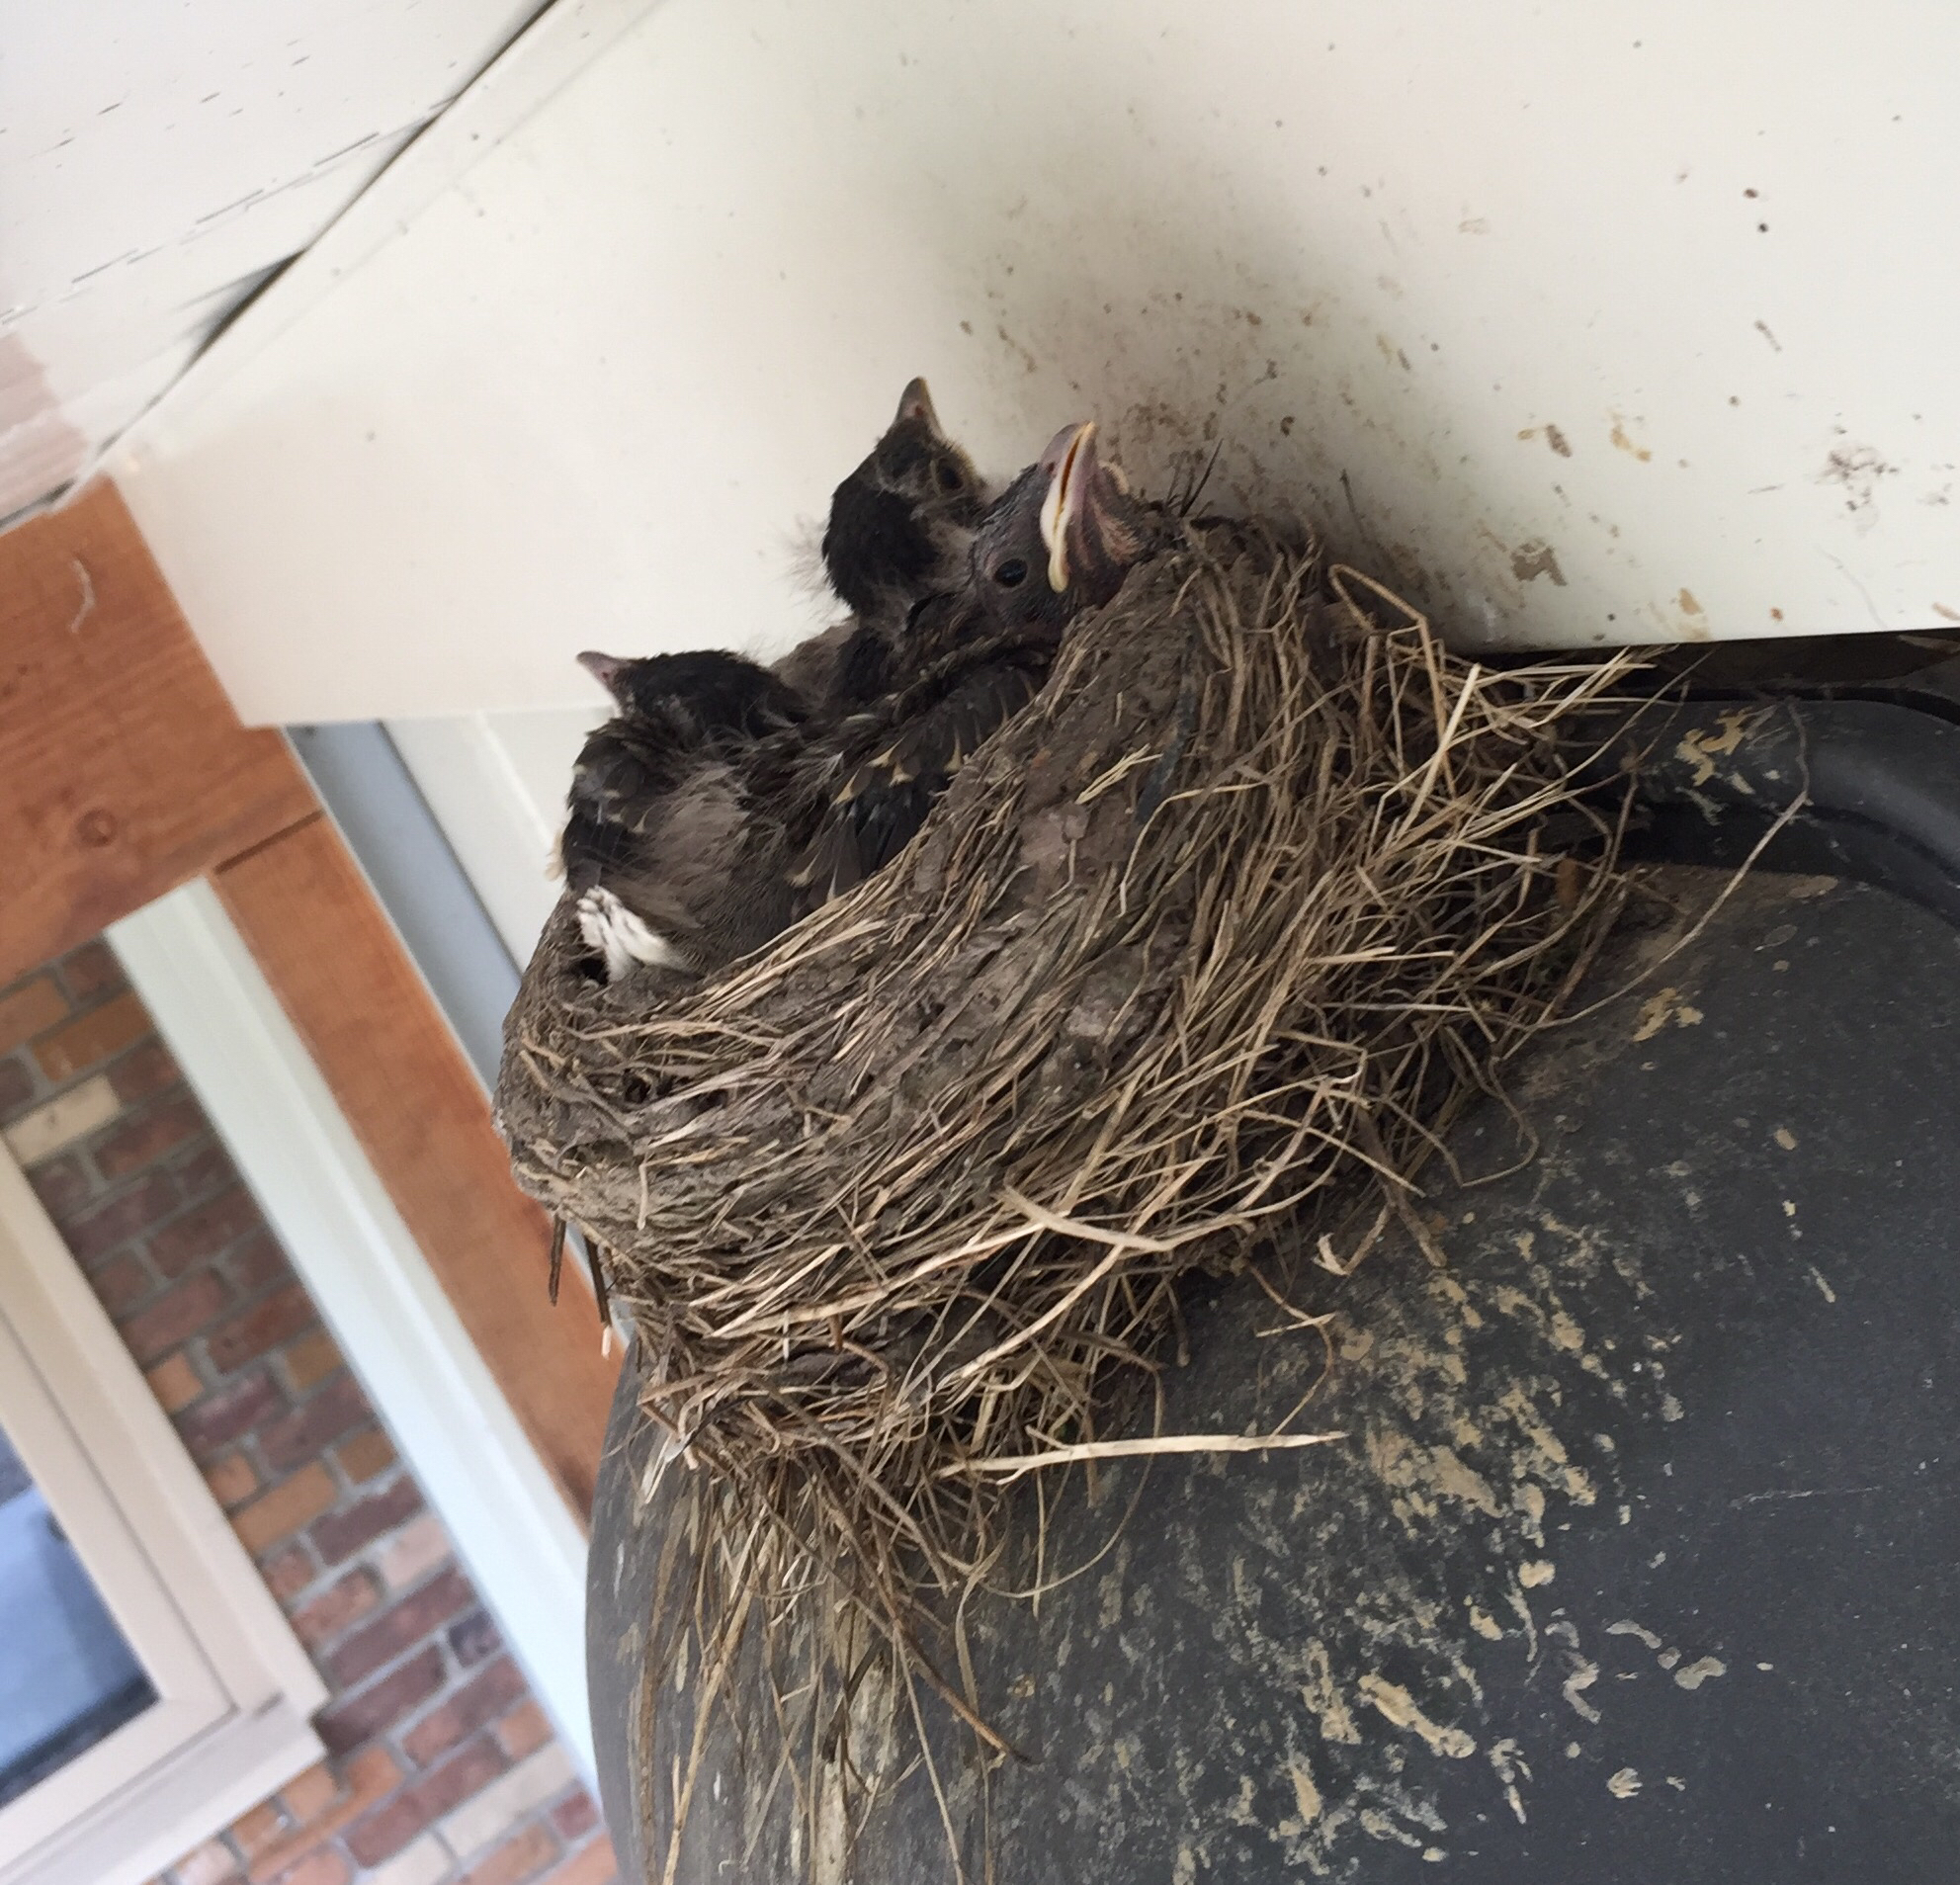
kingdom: Animalia
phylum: Chordata
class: Aves
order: Passeriformes
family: Turdidae
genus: Turdus
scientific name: Turdus migratorius
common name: American robin
